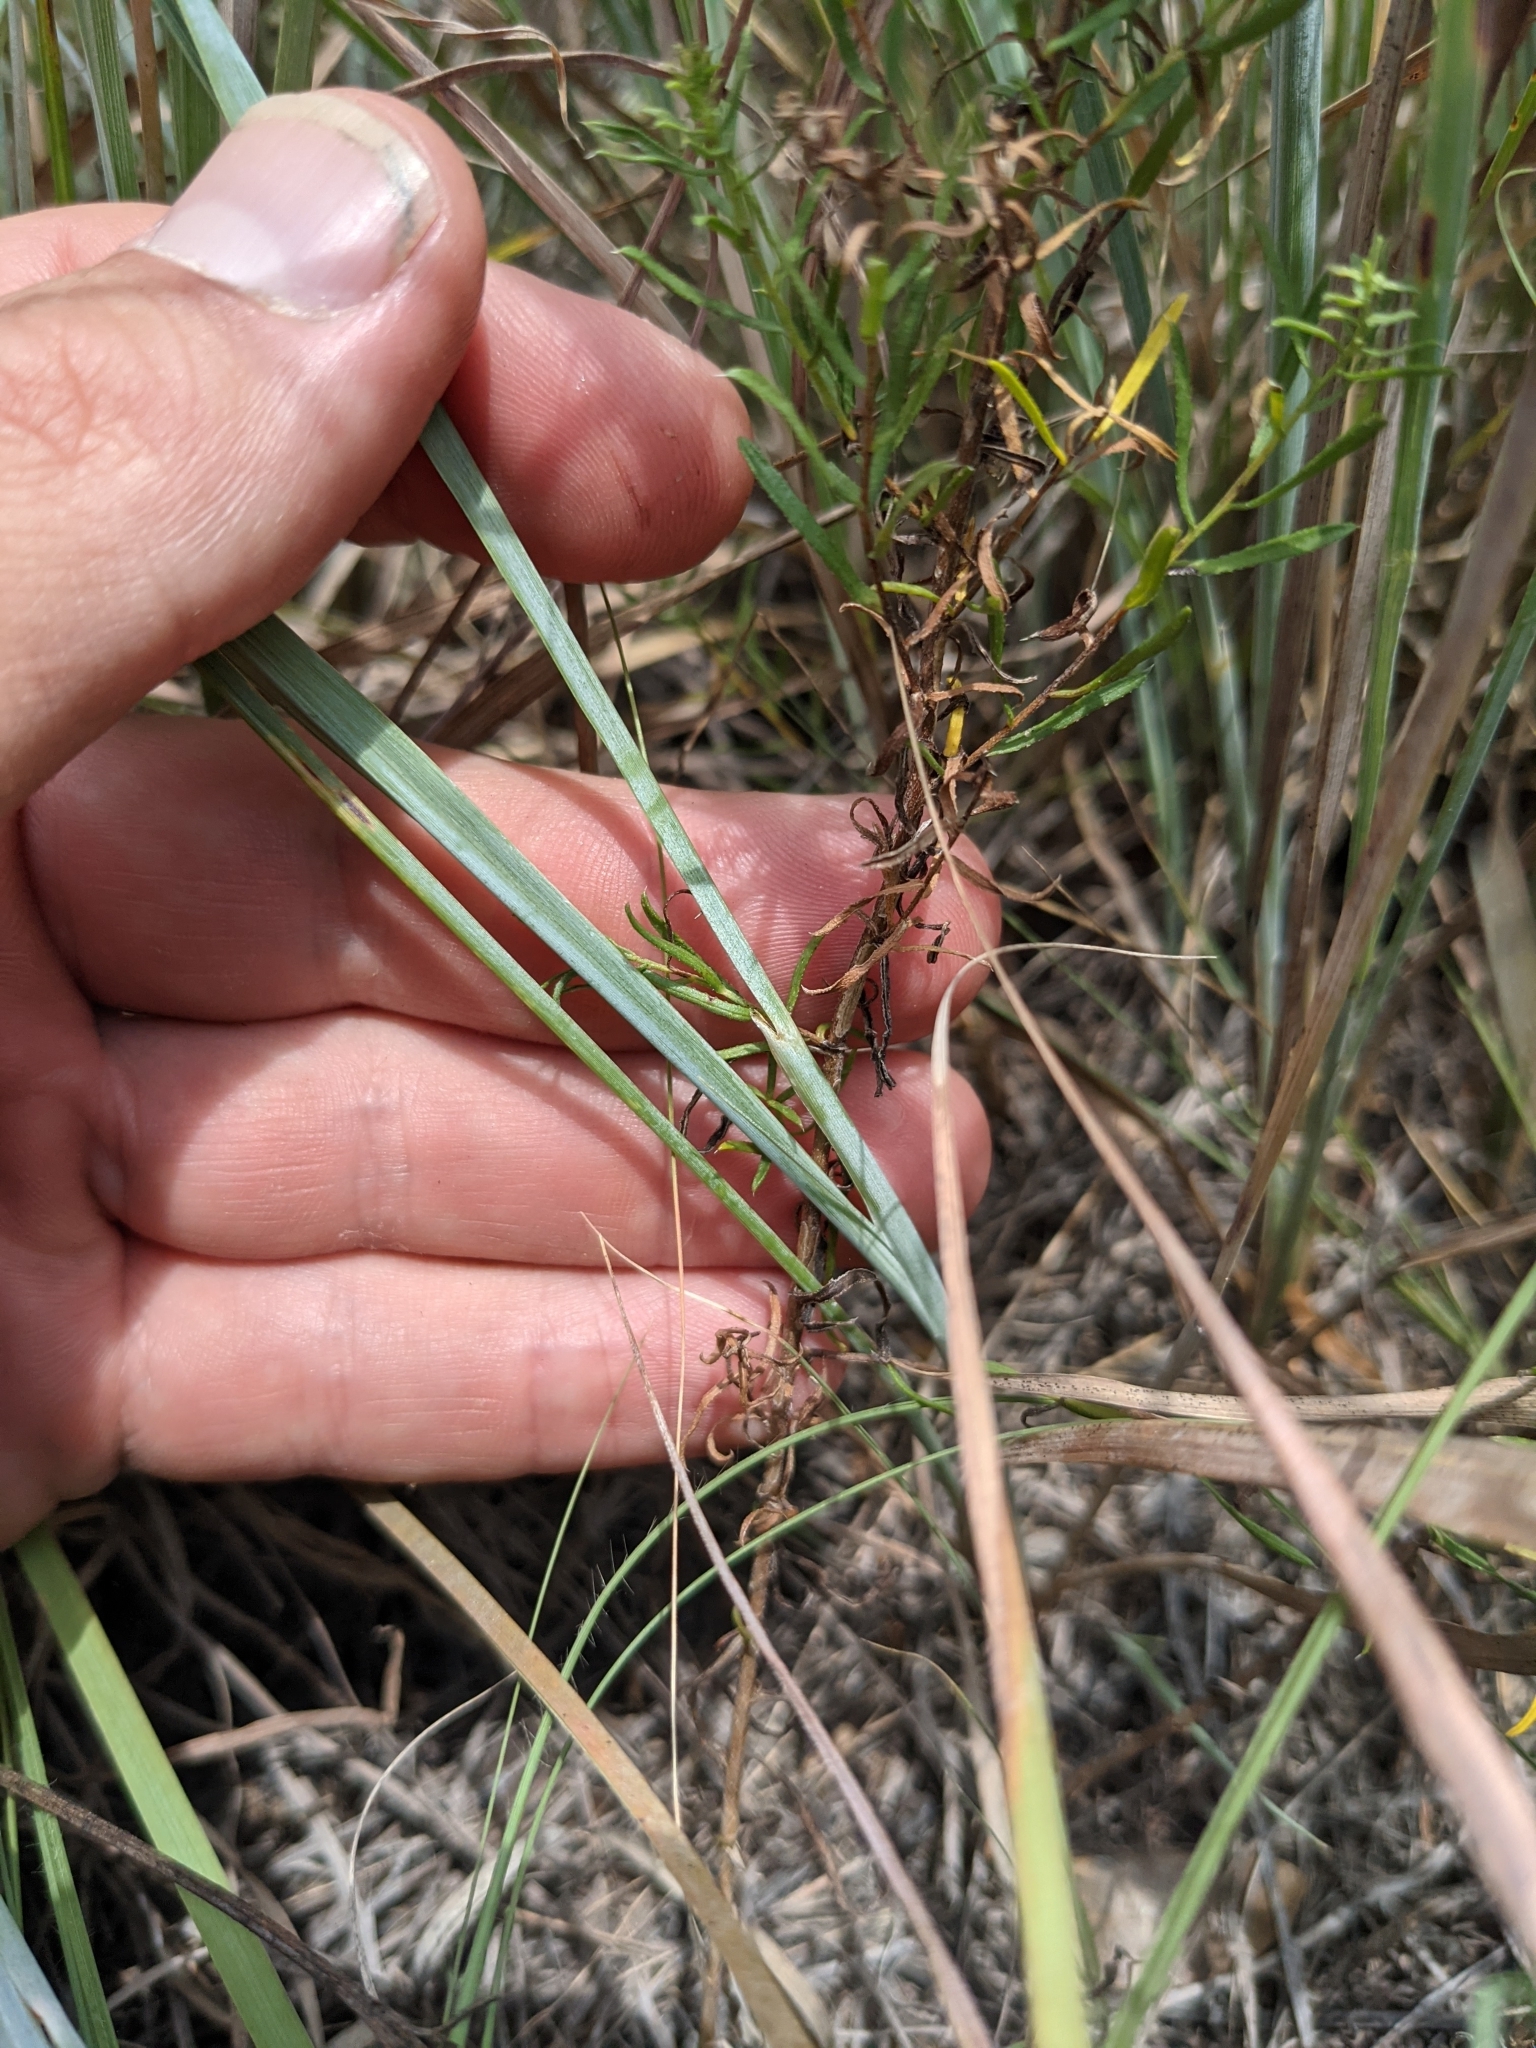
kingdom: Plantae
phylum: Tracheophyta
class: Liliopsida
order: Poales
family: Poaceae
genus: Sorghastrum
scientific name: Sorghastrum nutans
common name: Indian grass
